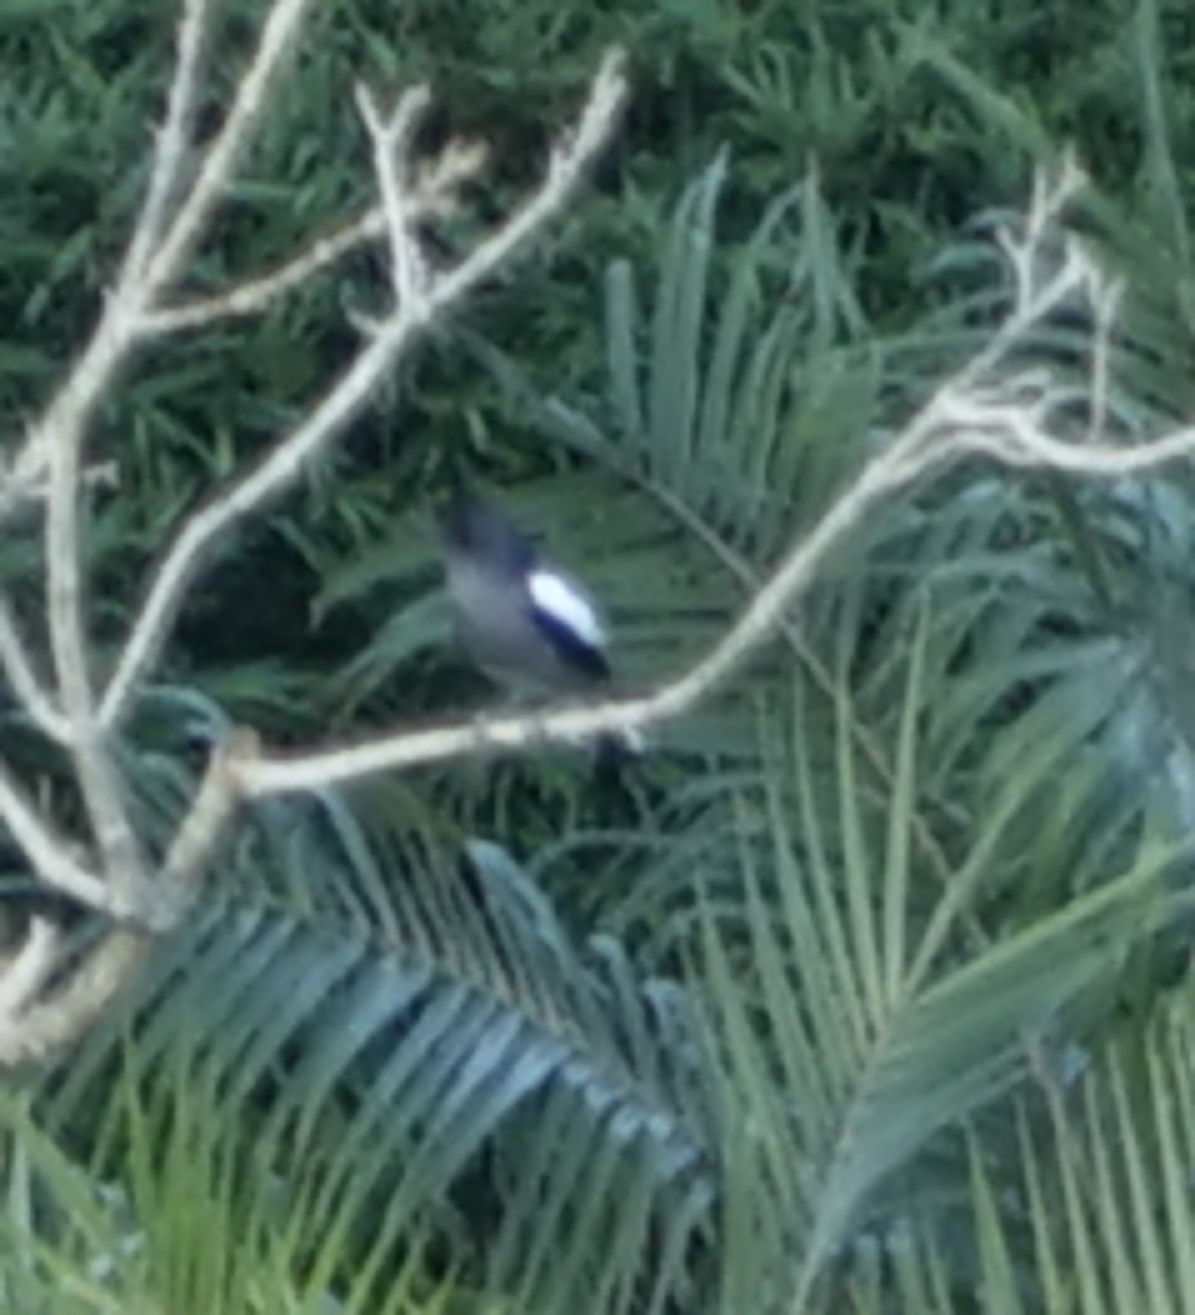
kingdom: Animalia
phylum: Chordata
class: Aves
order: Passeriformes
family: Muscicapidae
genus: Copsychus
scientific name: Copsychus saularis
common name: Oriental magpie-robin
